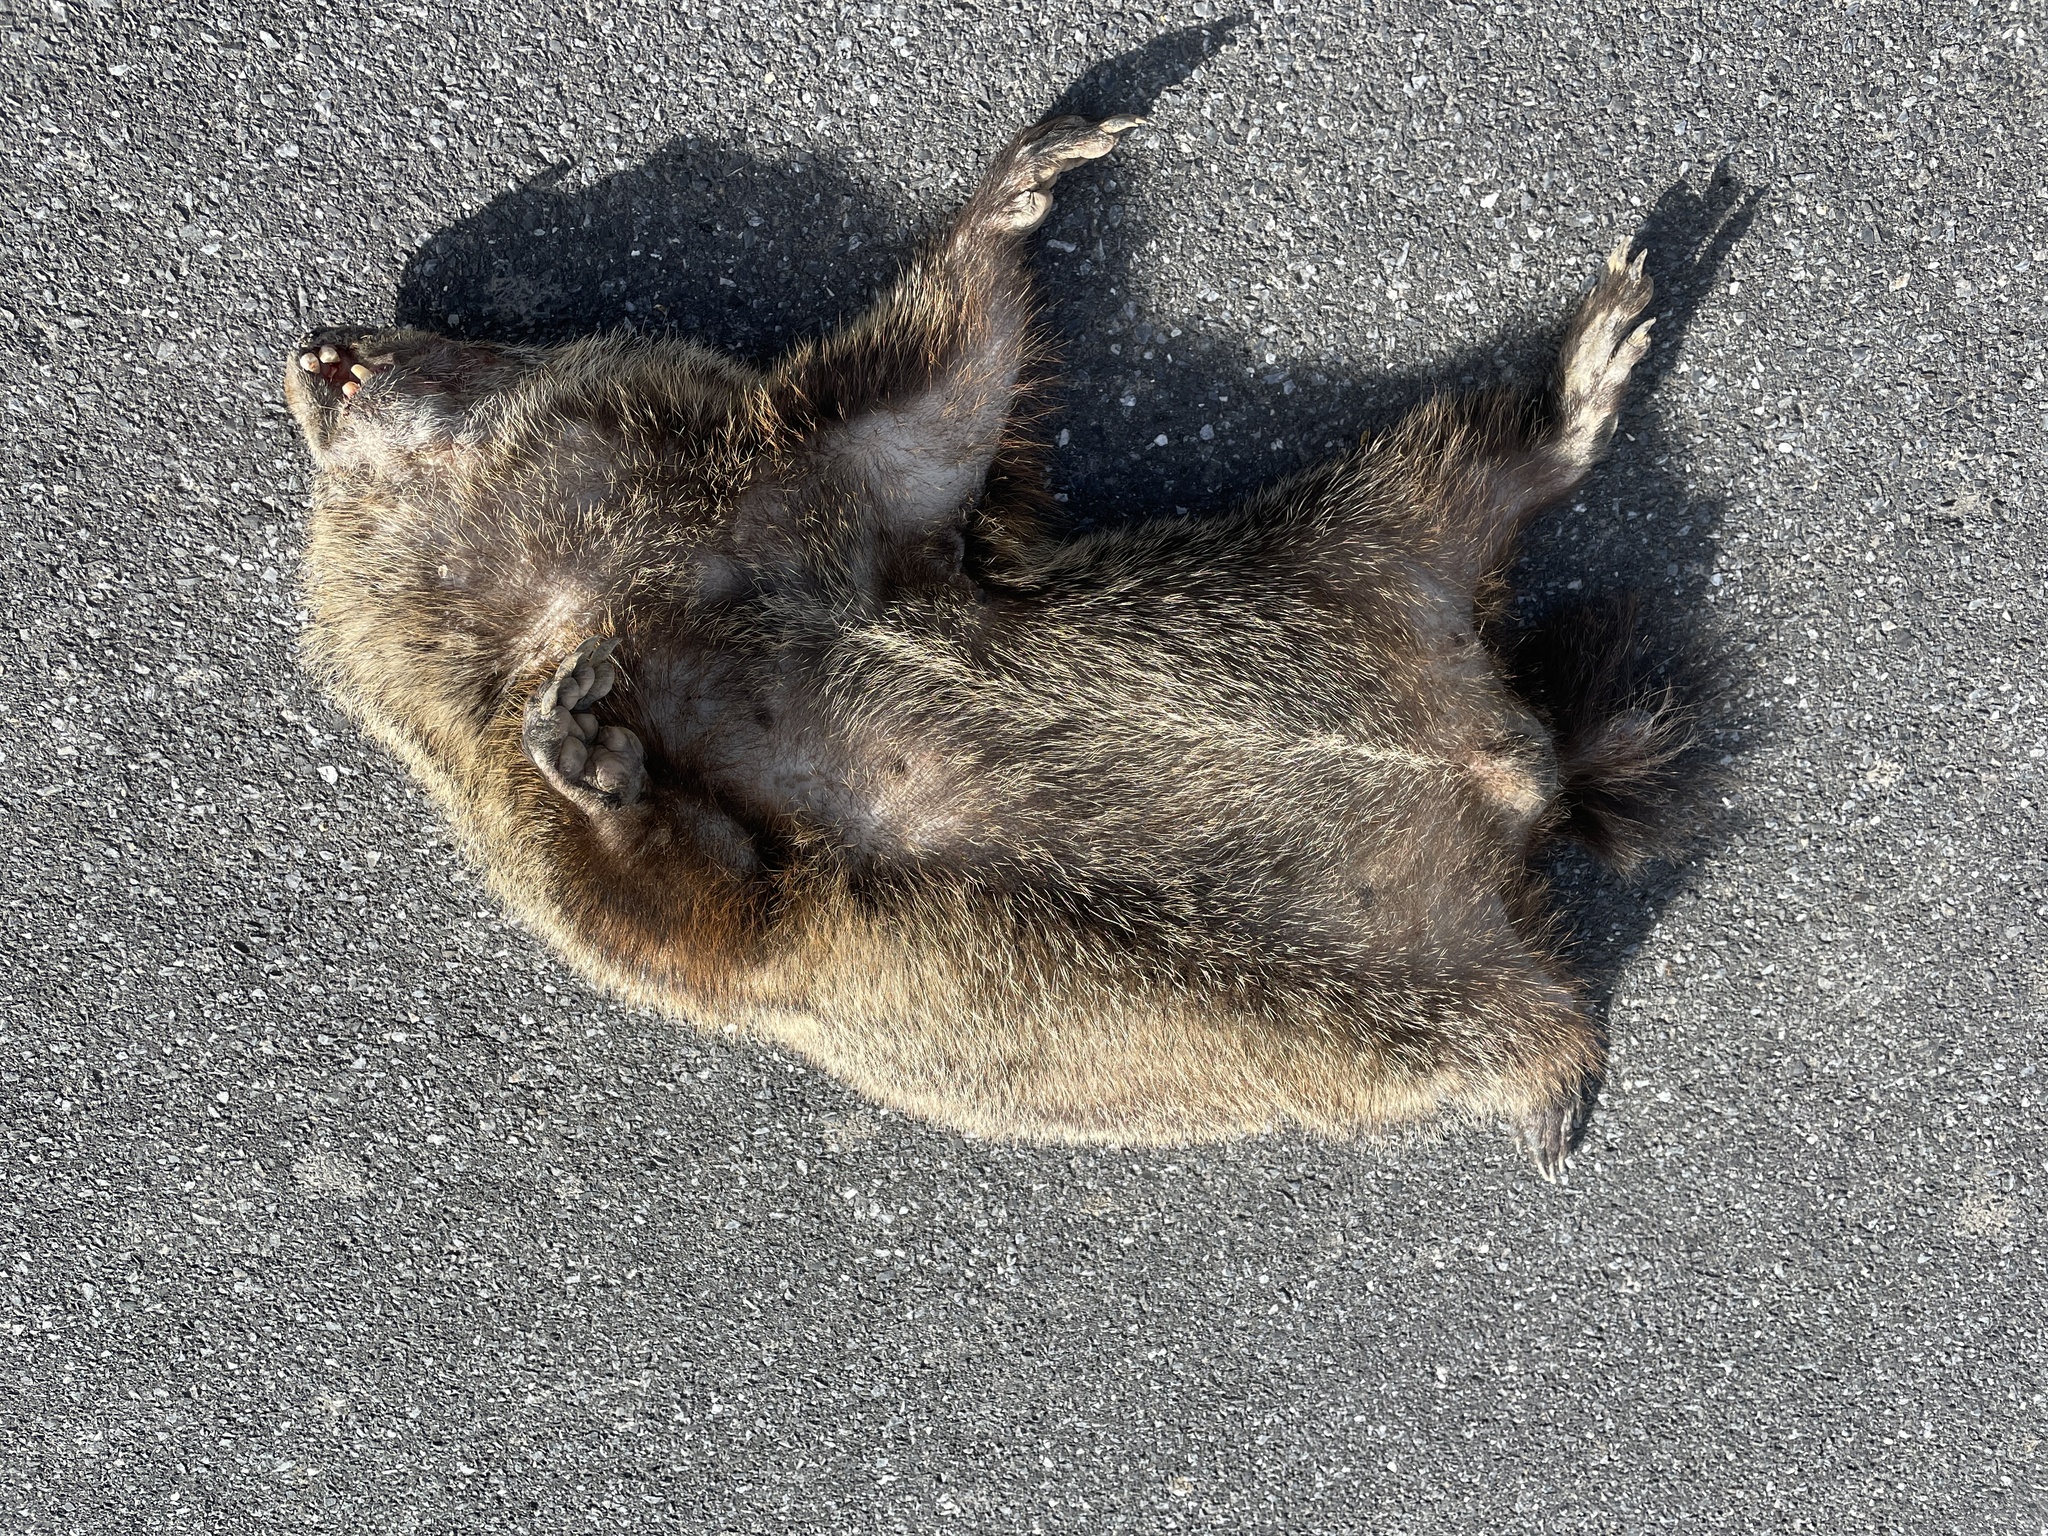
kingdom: Animalia
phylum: Chordata
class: Mammalia
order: Rodentia
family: Sciuridae
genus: Marmota
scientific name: Marmota monax
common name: Groundhog
